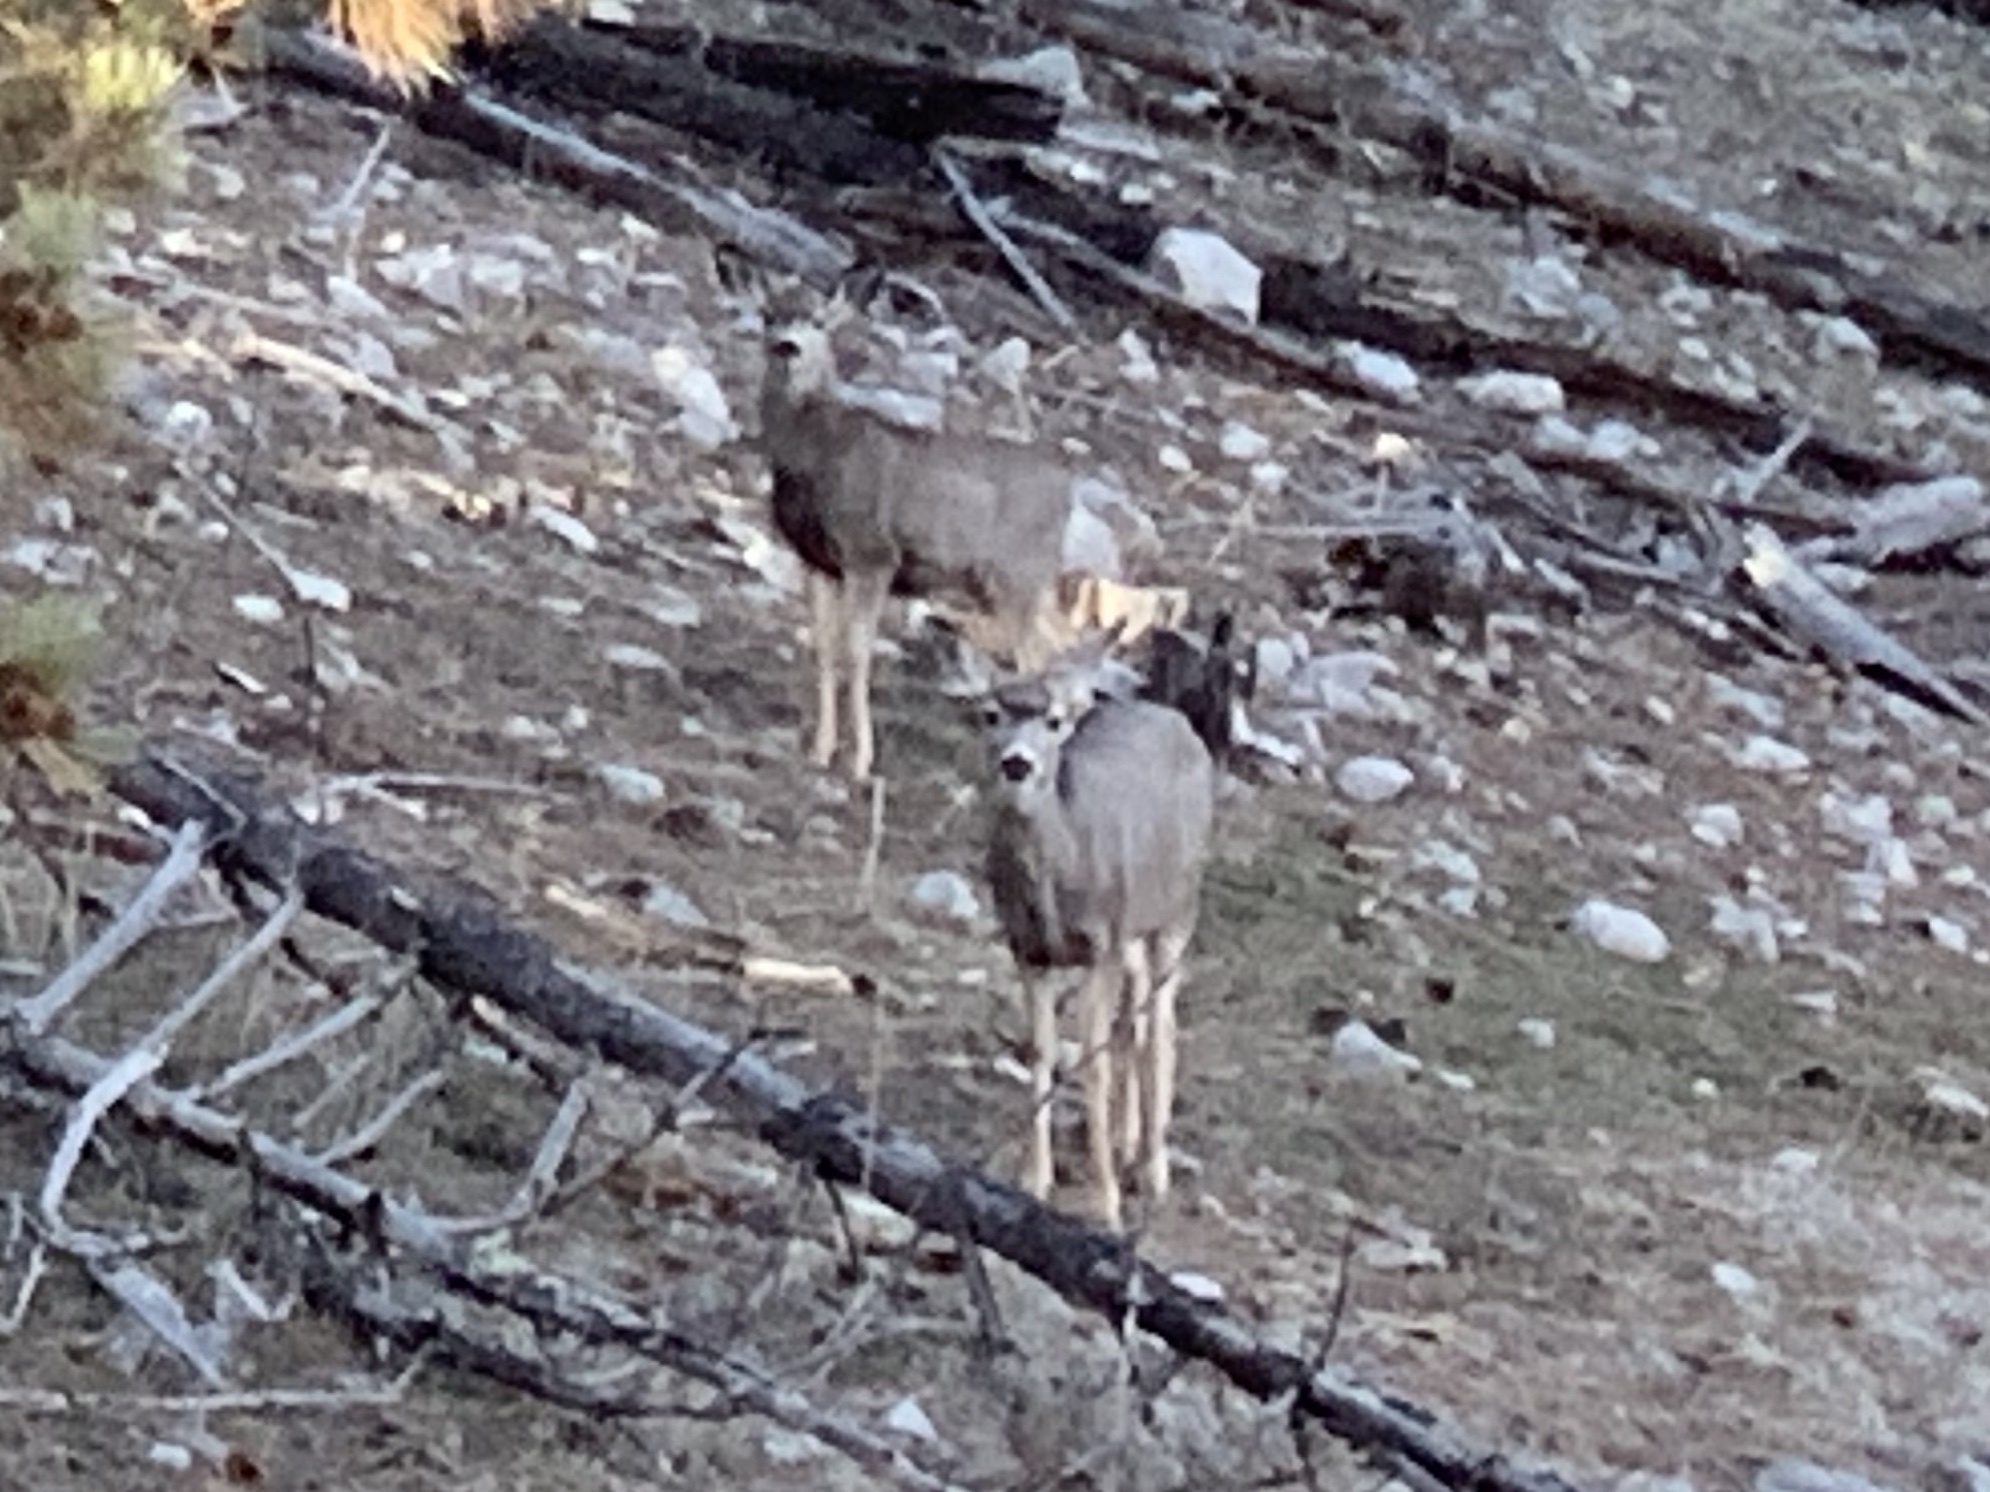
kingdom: Animalia
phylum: Chordata
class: Mammalia
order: Artiodactyla
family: Cervidae
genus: Odocoileus
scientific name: Odocoileus hemionus
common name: Mule deer
